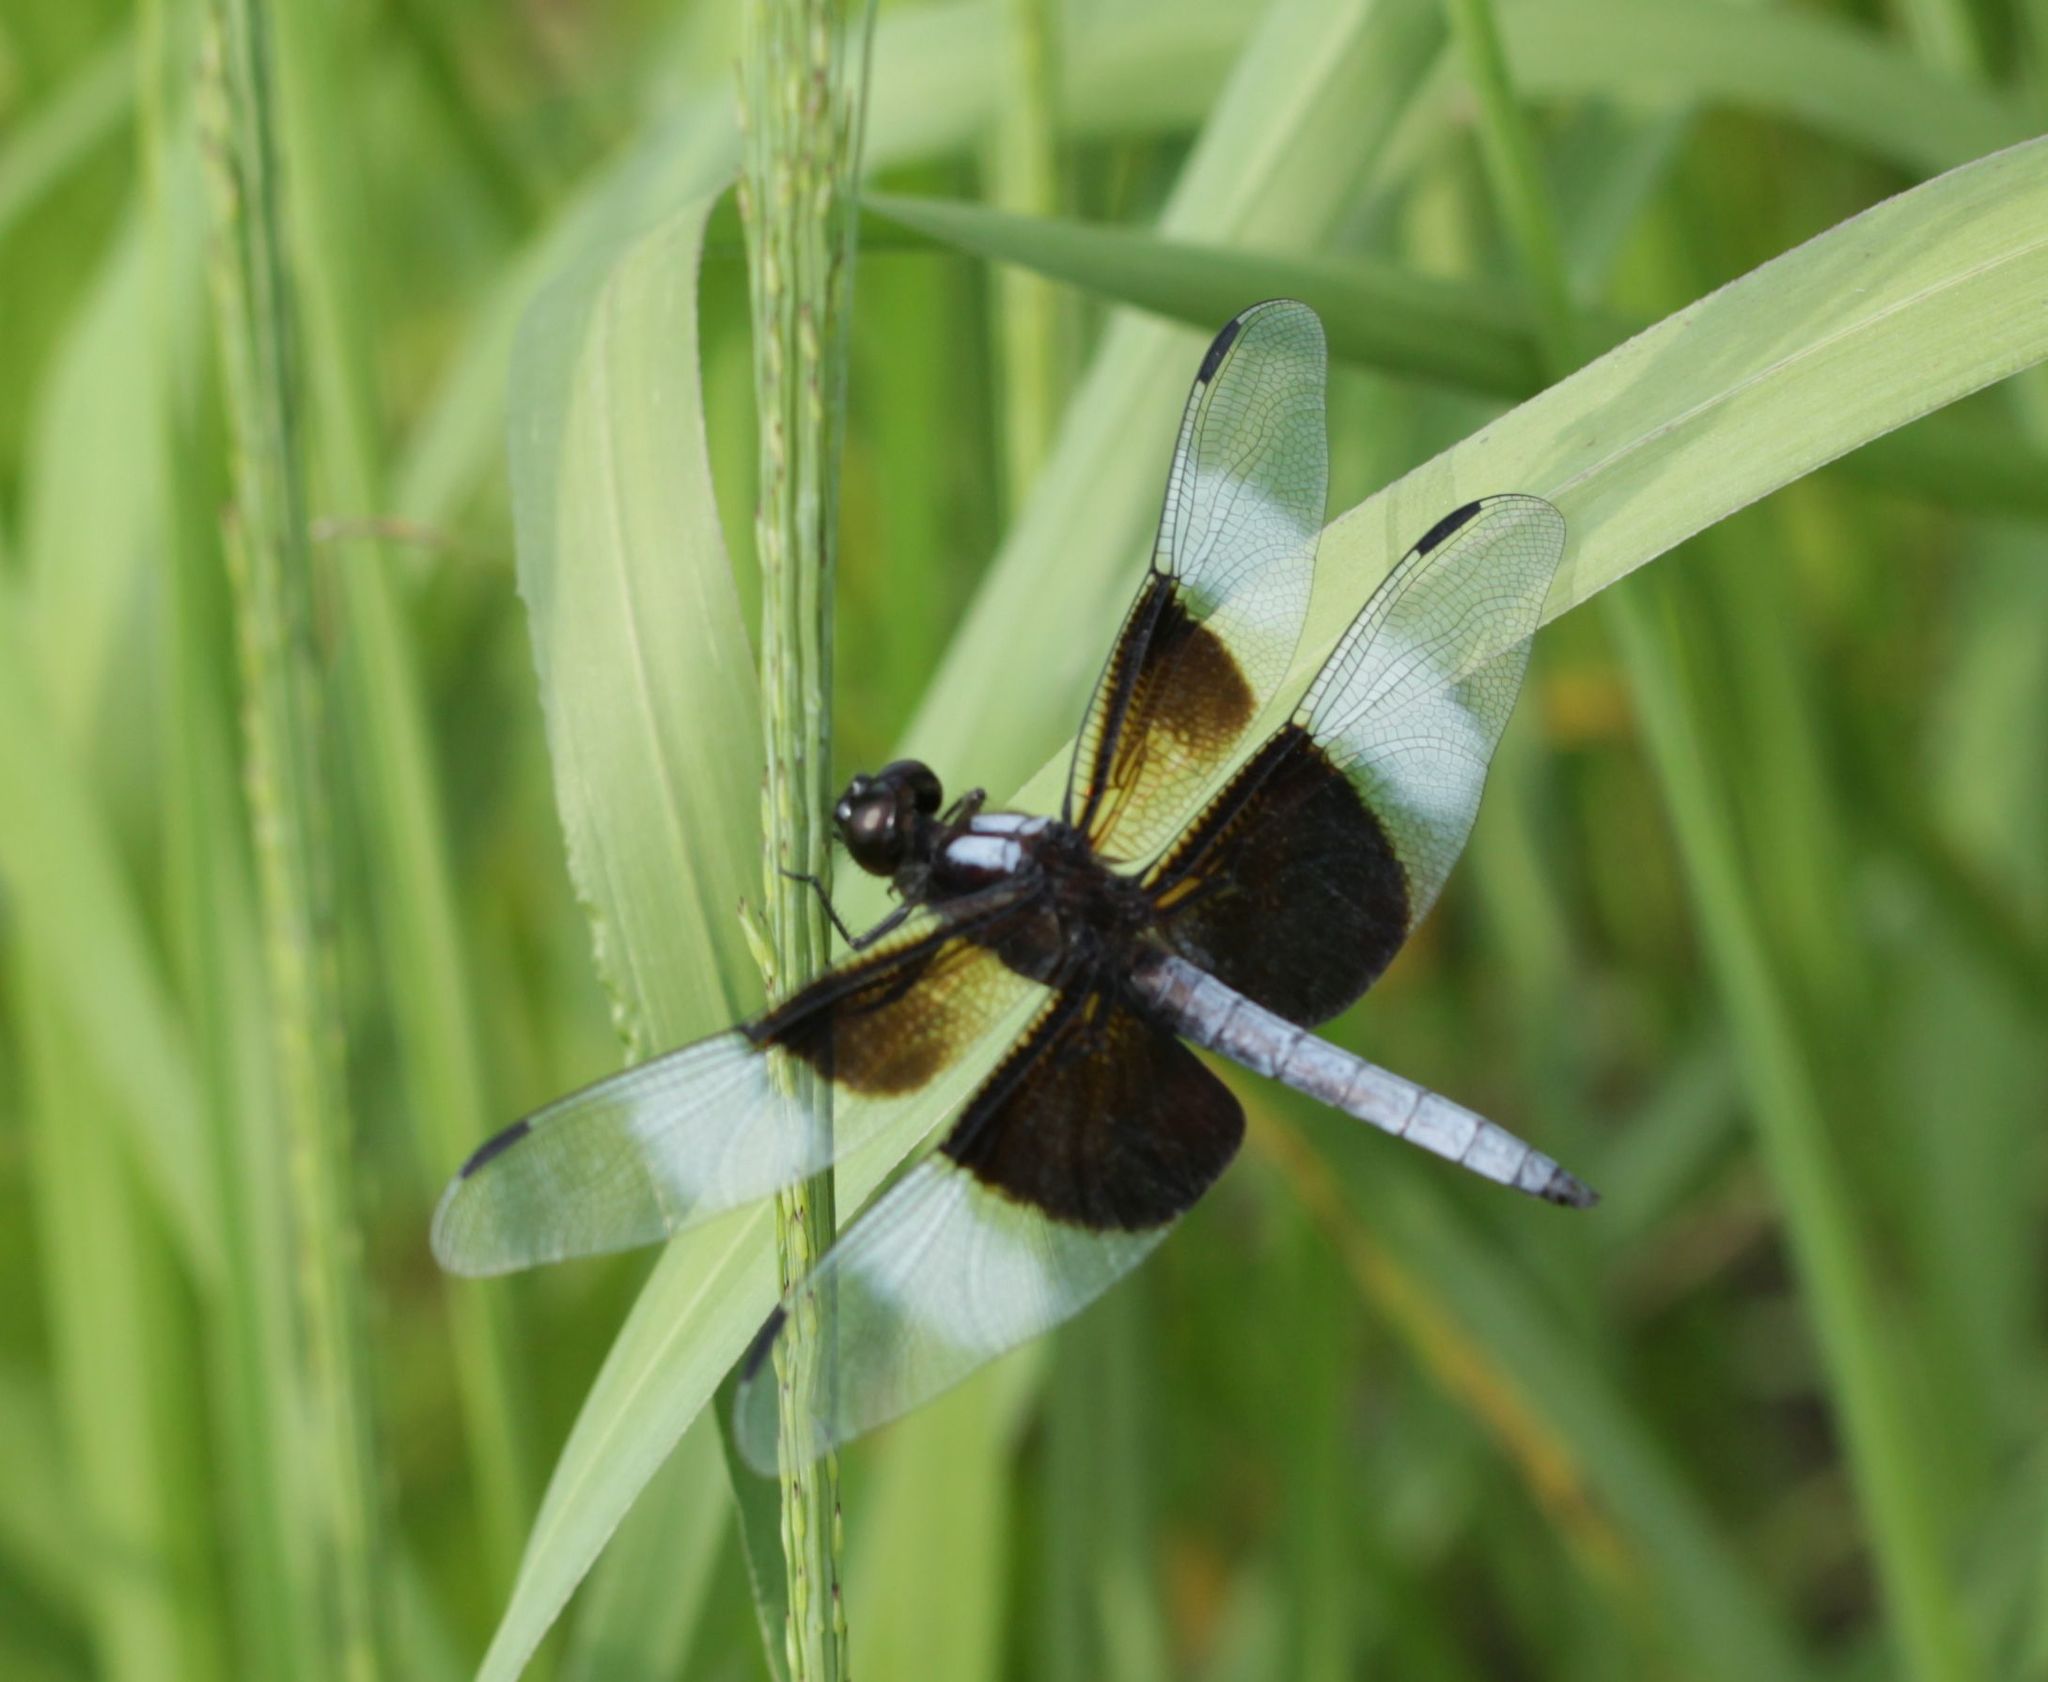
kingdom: Animalia
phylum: Arthropoda
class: Insecta
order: Odonata
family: Libellulidae
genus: Libellula
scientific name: Libellula luctuosa
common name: Widow skimmer
